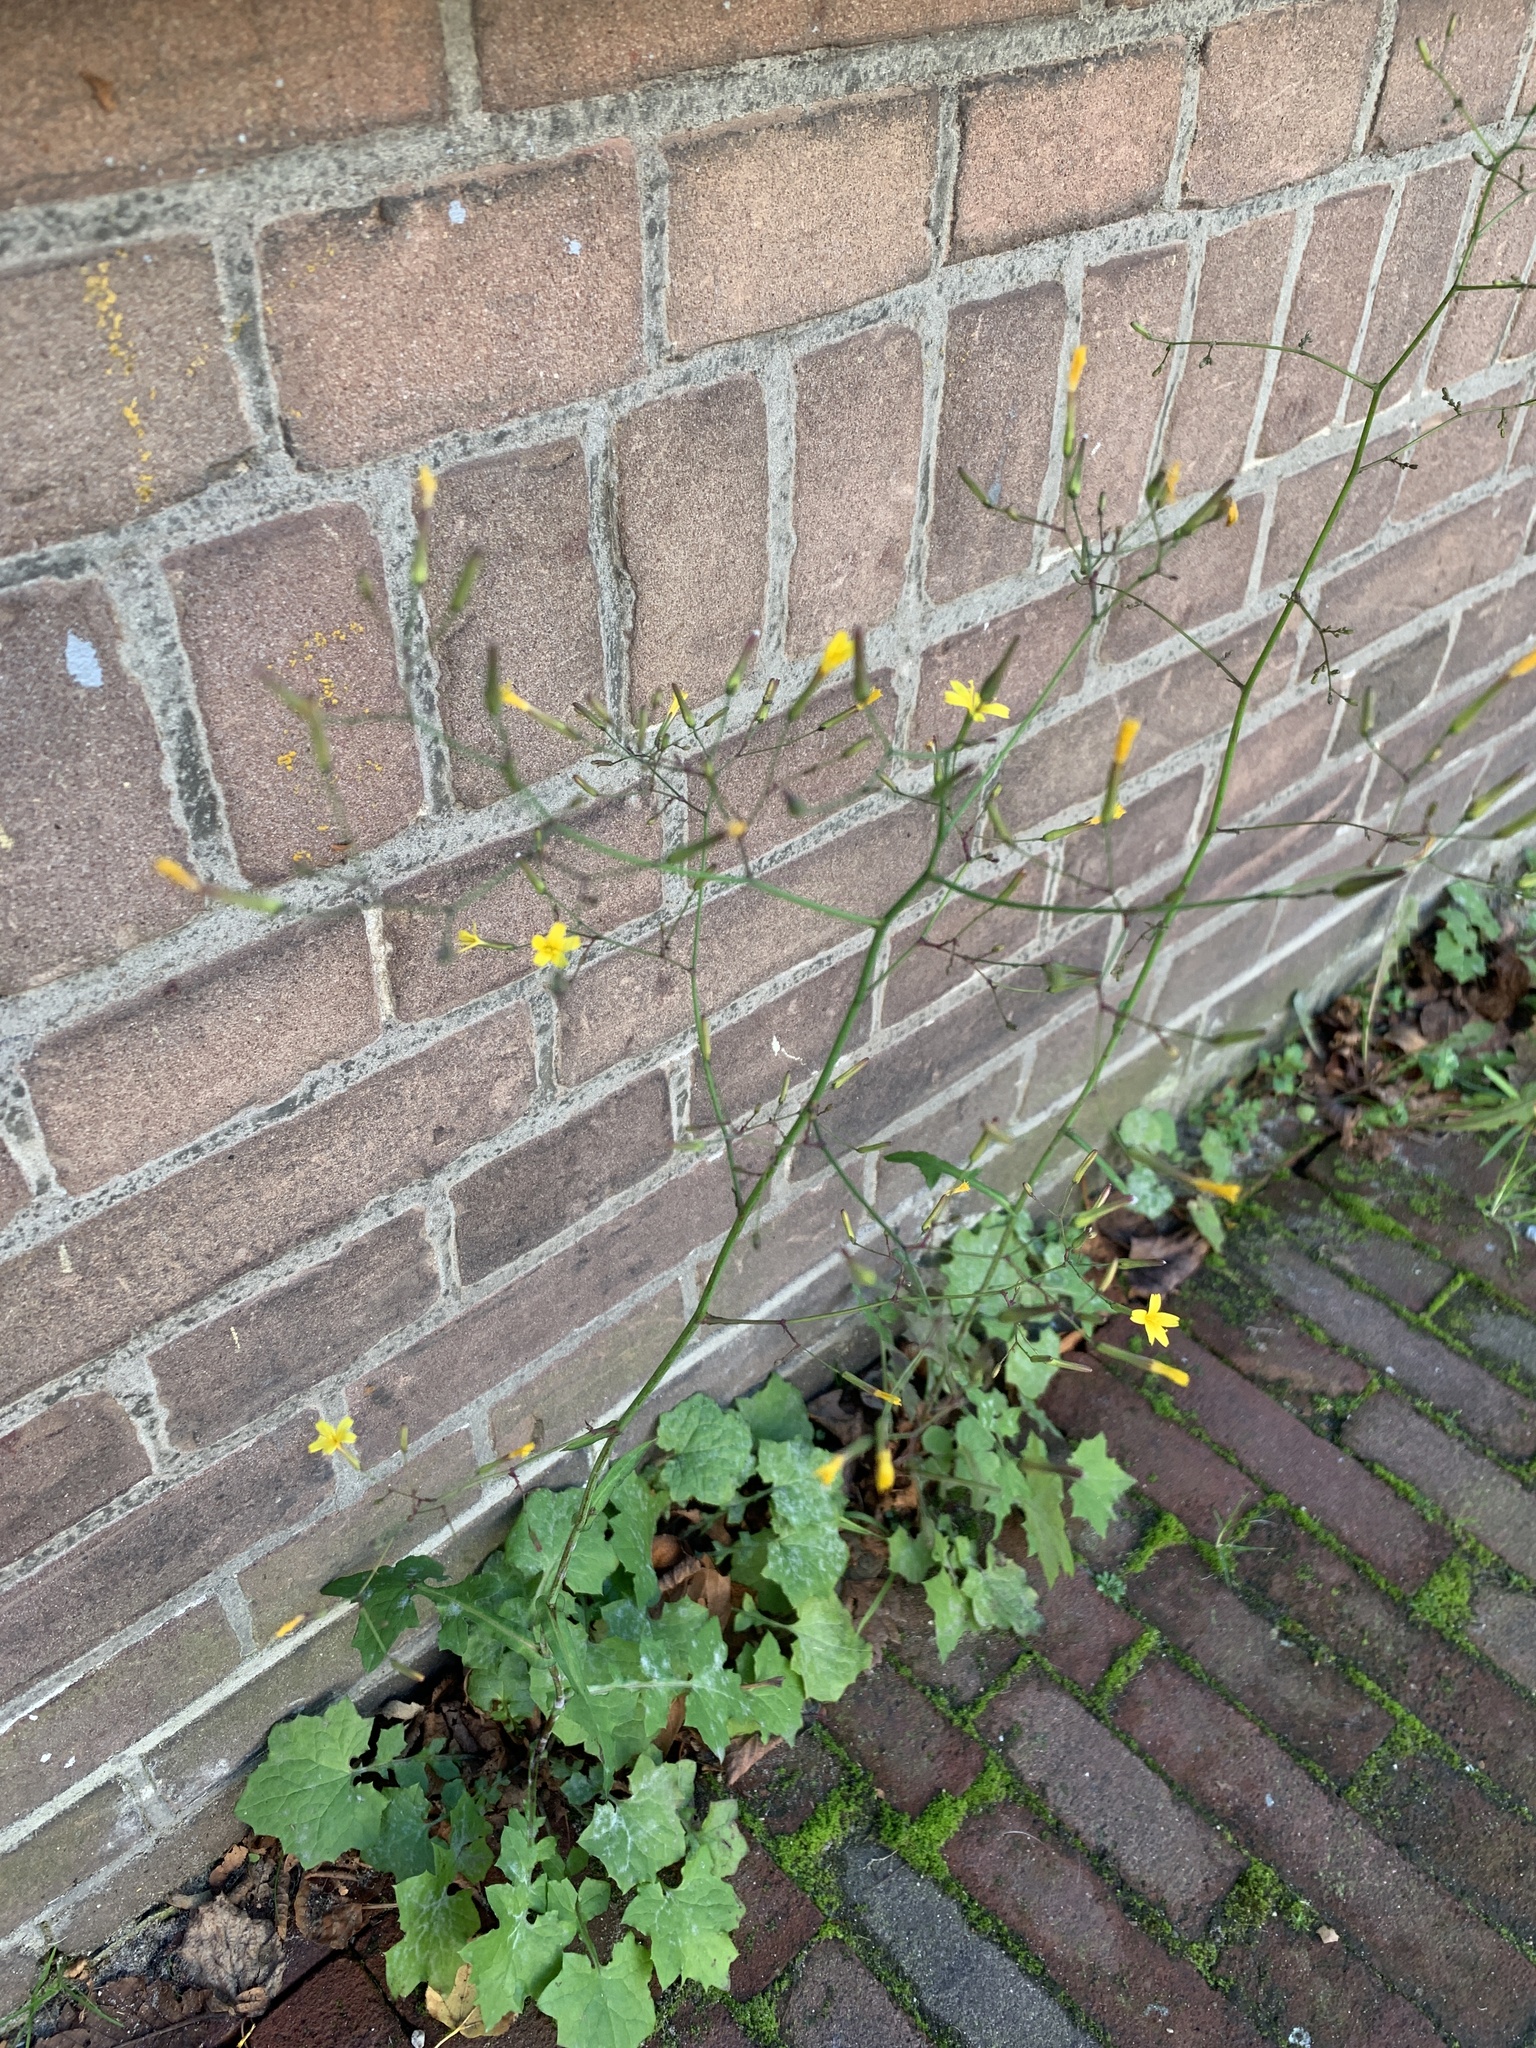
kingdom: Plantae
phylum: Tracheophyta
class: Magnoliopsida
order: Asterales
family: Asteraceae
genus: Mycelis
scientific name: Mycelis muralis
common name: Wall lettuce
